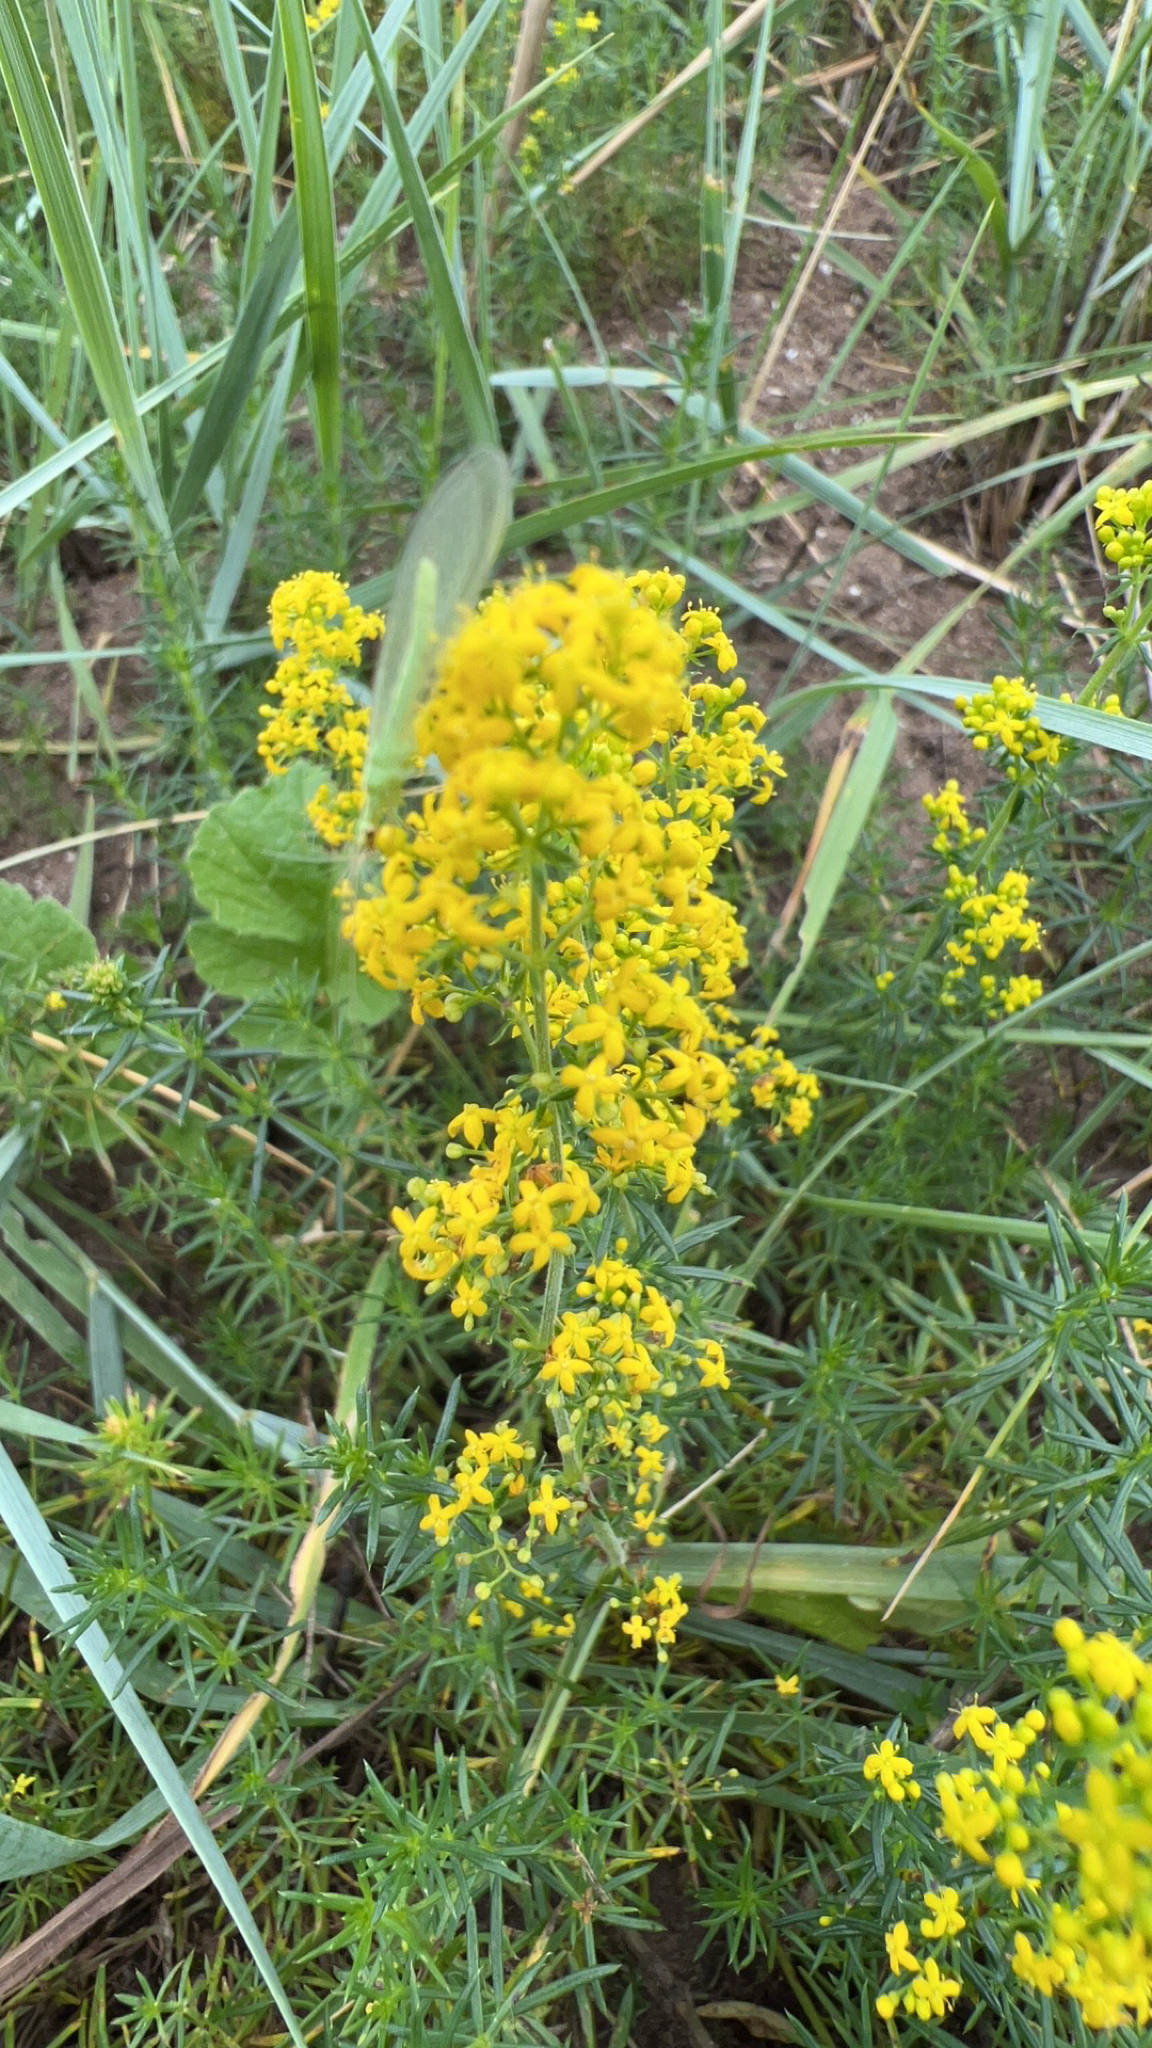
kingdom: Plantae
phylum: Tracheophyta
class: Magnoliopsida
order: Gentianales
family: Rubiaceae
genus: Galium
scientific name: Galium verum
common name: Lady's bedstraw
